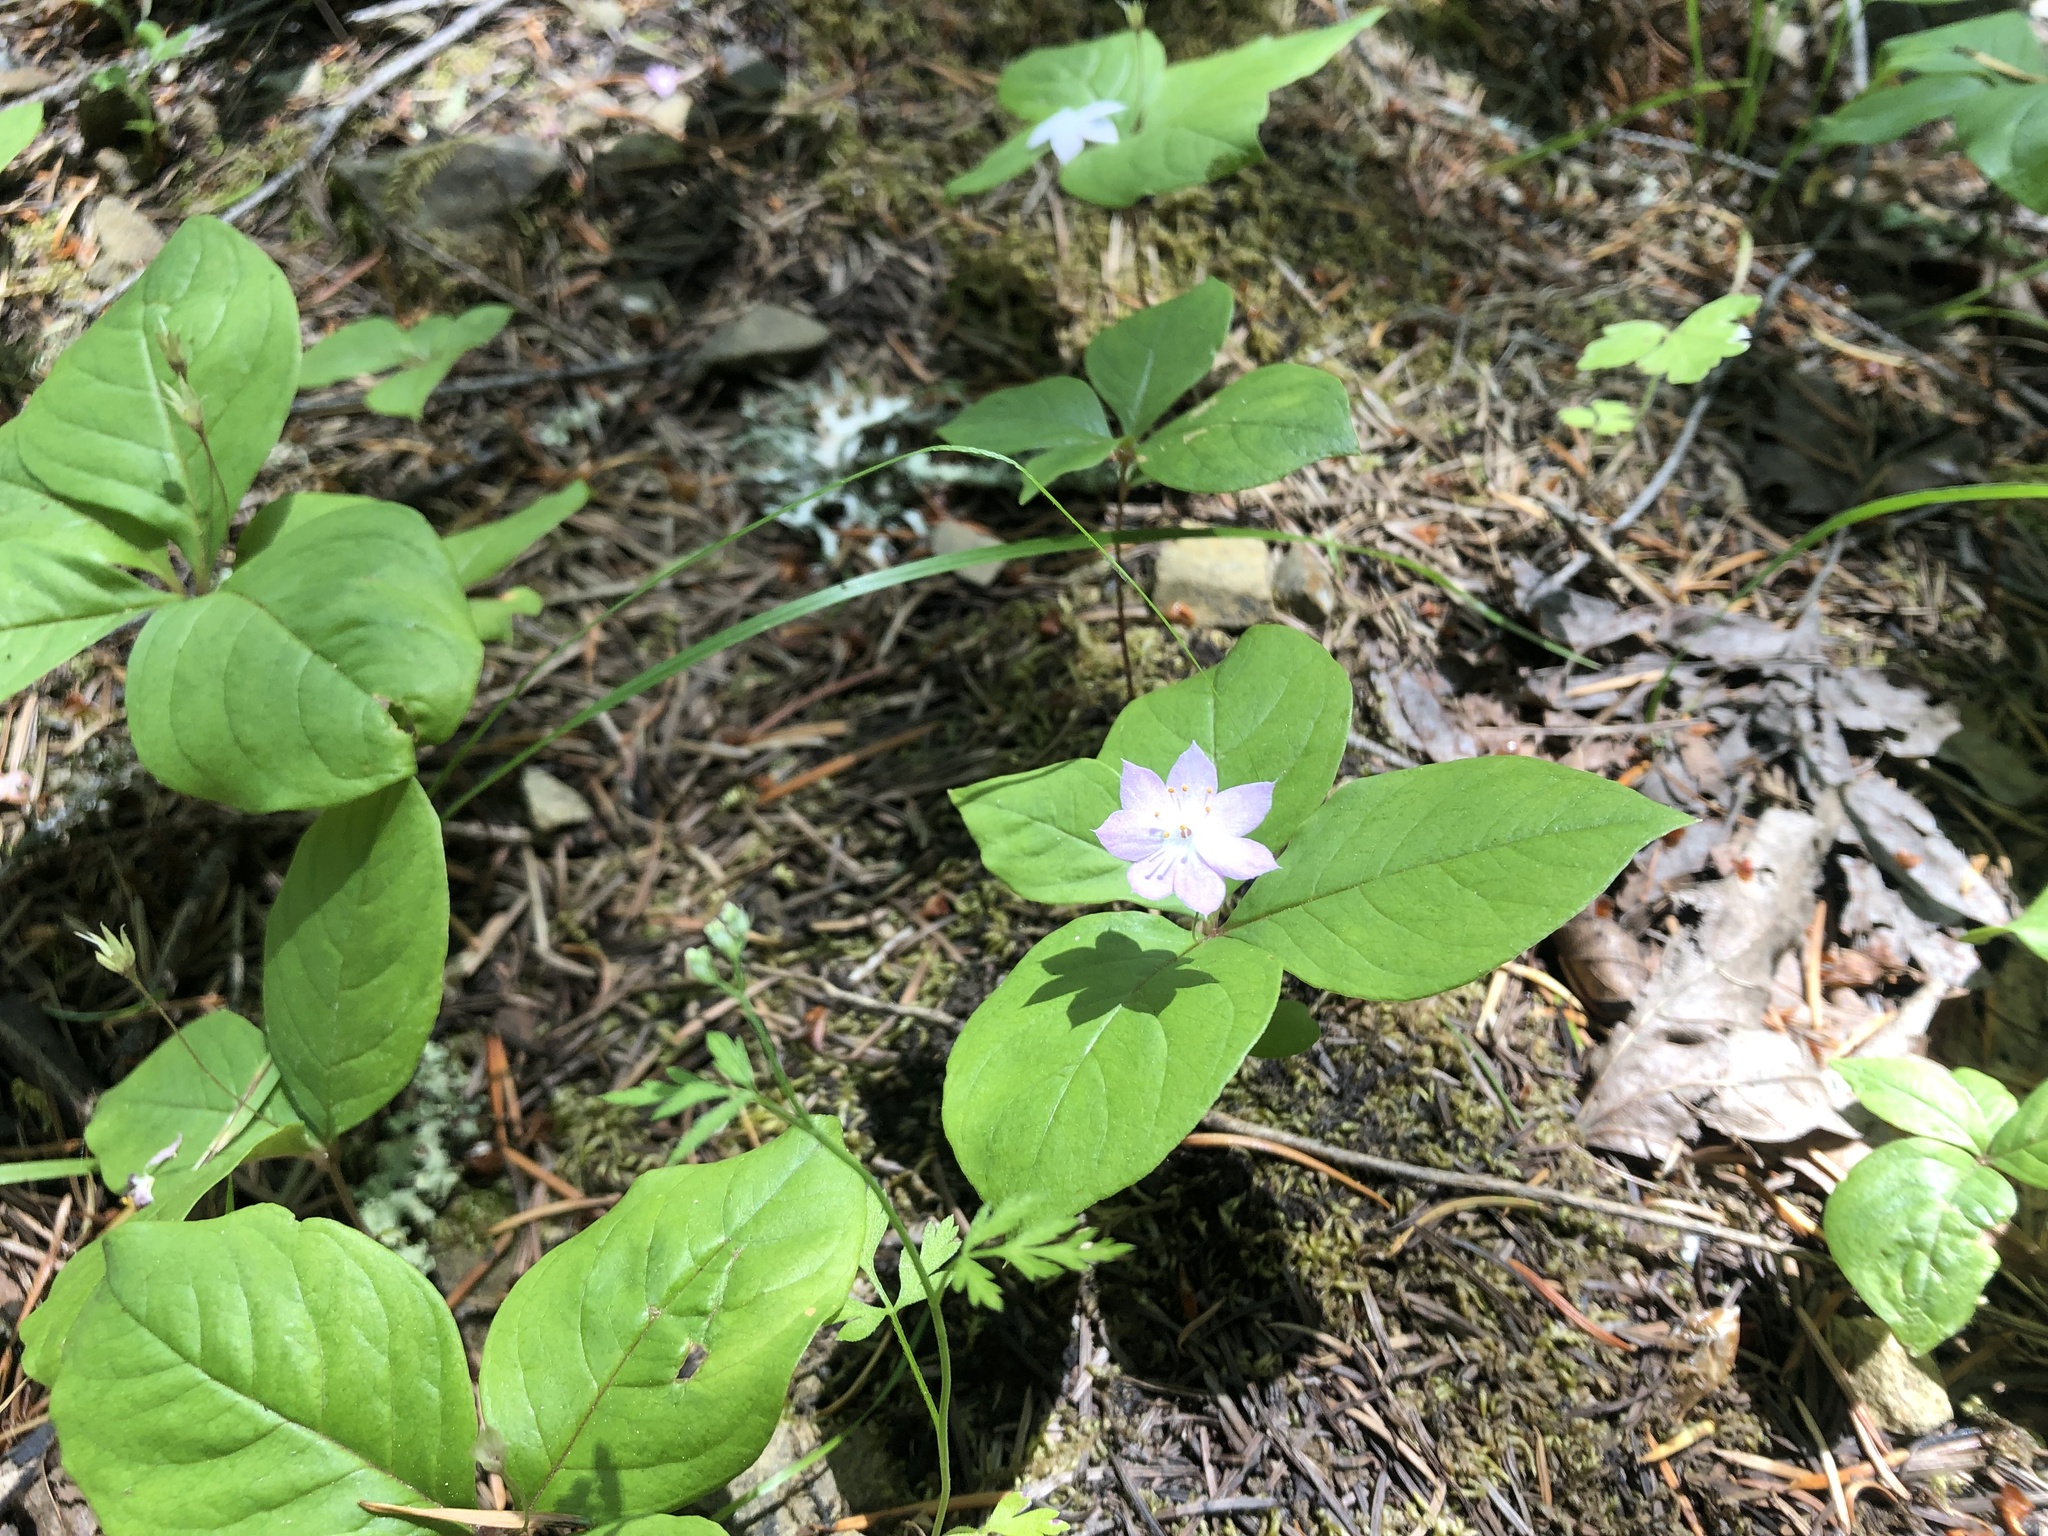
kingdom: Plantae
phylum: Tracheophyta
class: Magnoliopsida
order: Ericales
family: Primulaceae
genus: Lysimachia
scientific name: Lysimachia latifolia
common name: Pacific starflower
